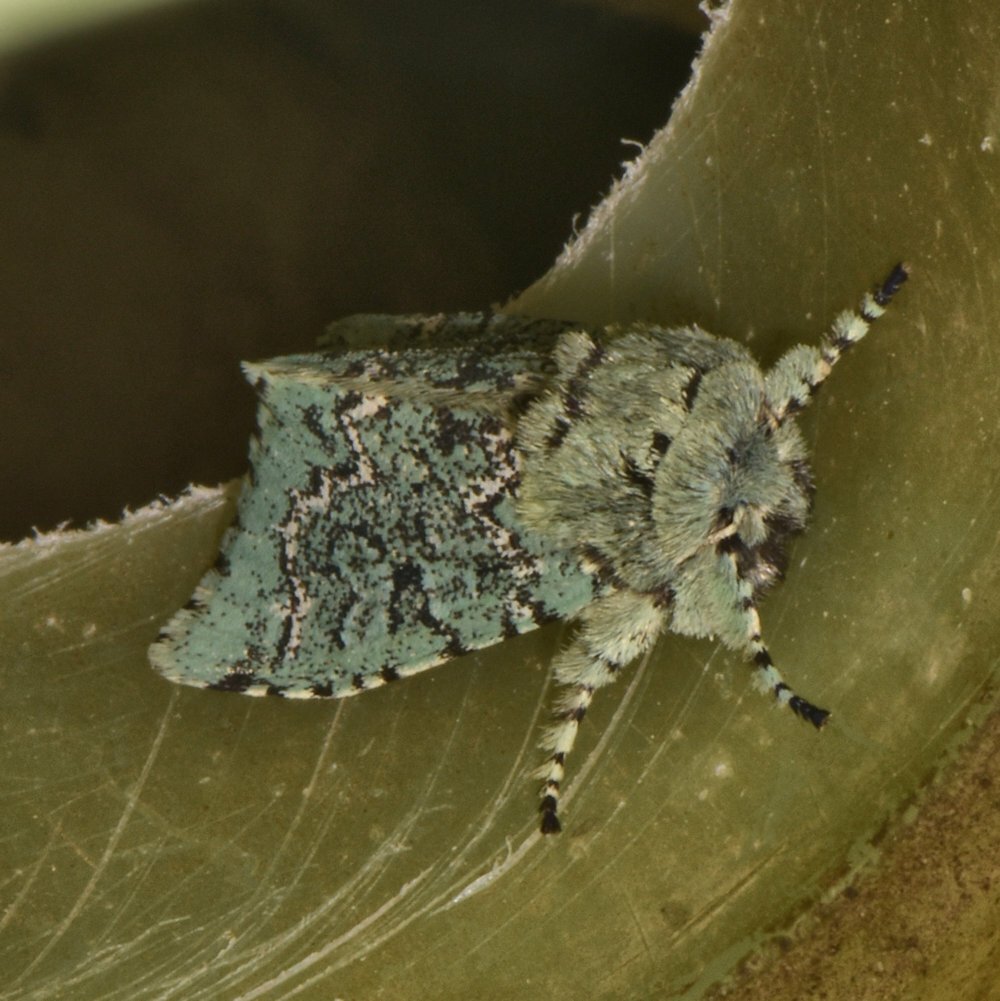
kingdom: Animalia
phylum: Arthropoda
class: Insecta
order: Lepidoptera
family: Noctuidae
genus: Feralia
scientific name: Feralia jocosa
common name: Joker
